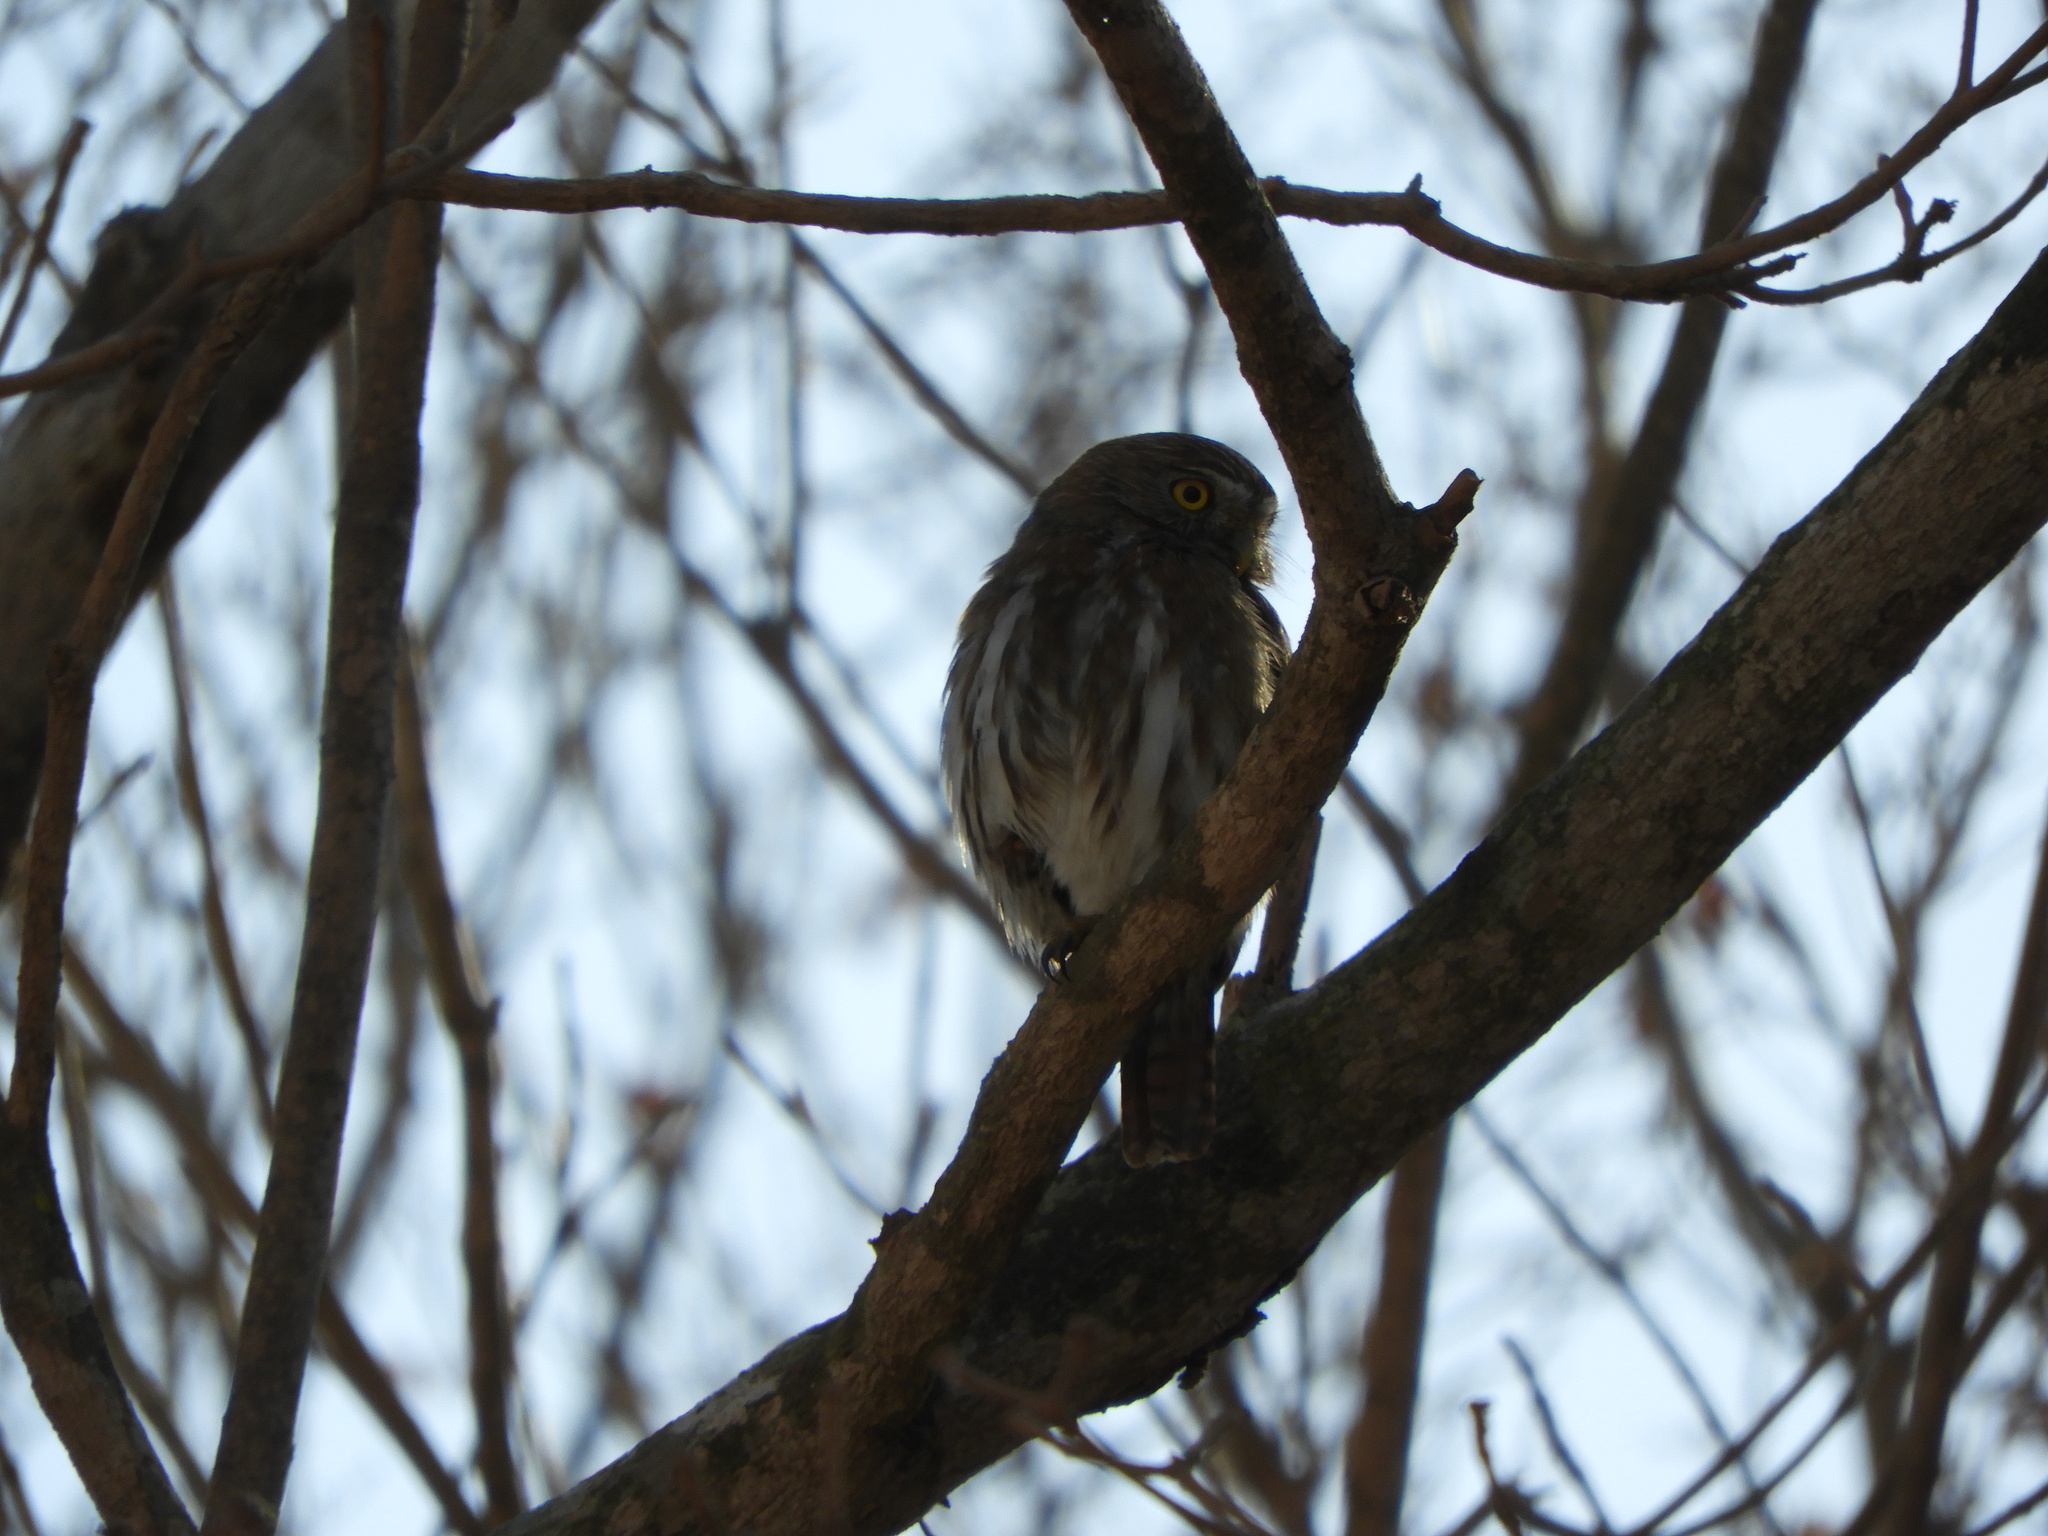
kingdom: Animalia
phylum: Chordata
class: Aves
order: Strigiformes
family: Strigidae
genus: Glaucidium
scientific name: Glaucidium brasilianum
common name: Ferruginous pygmy-owl
